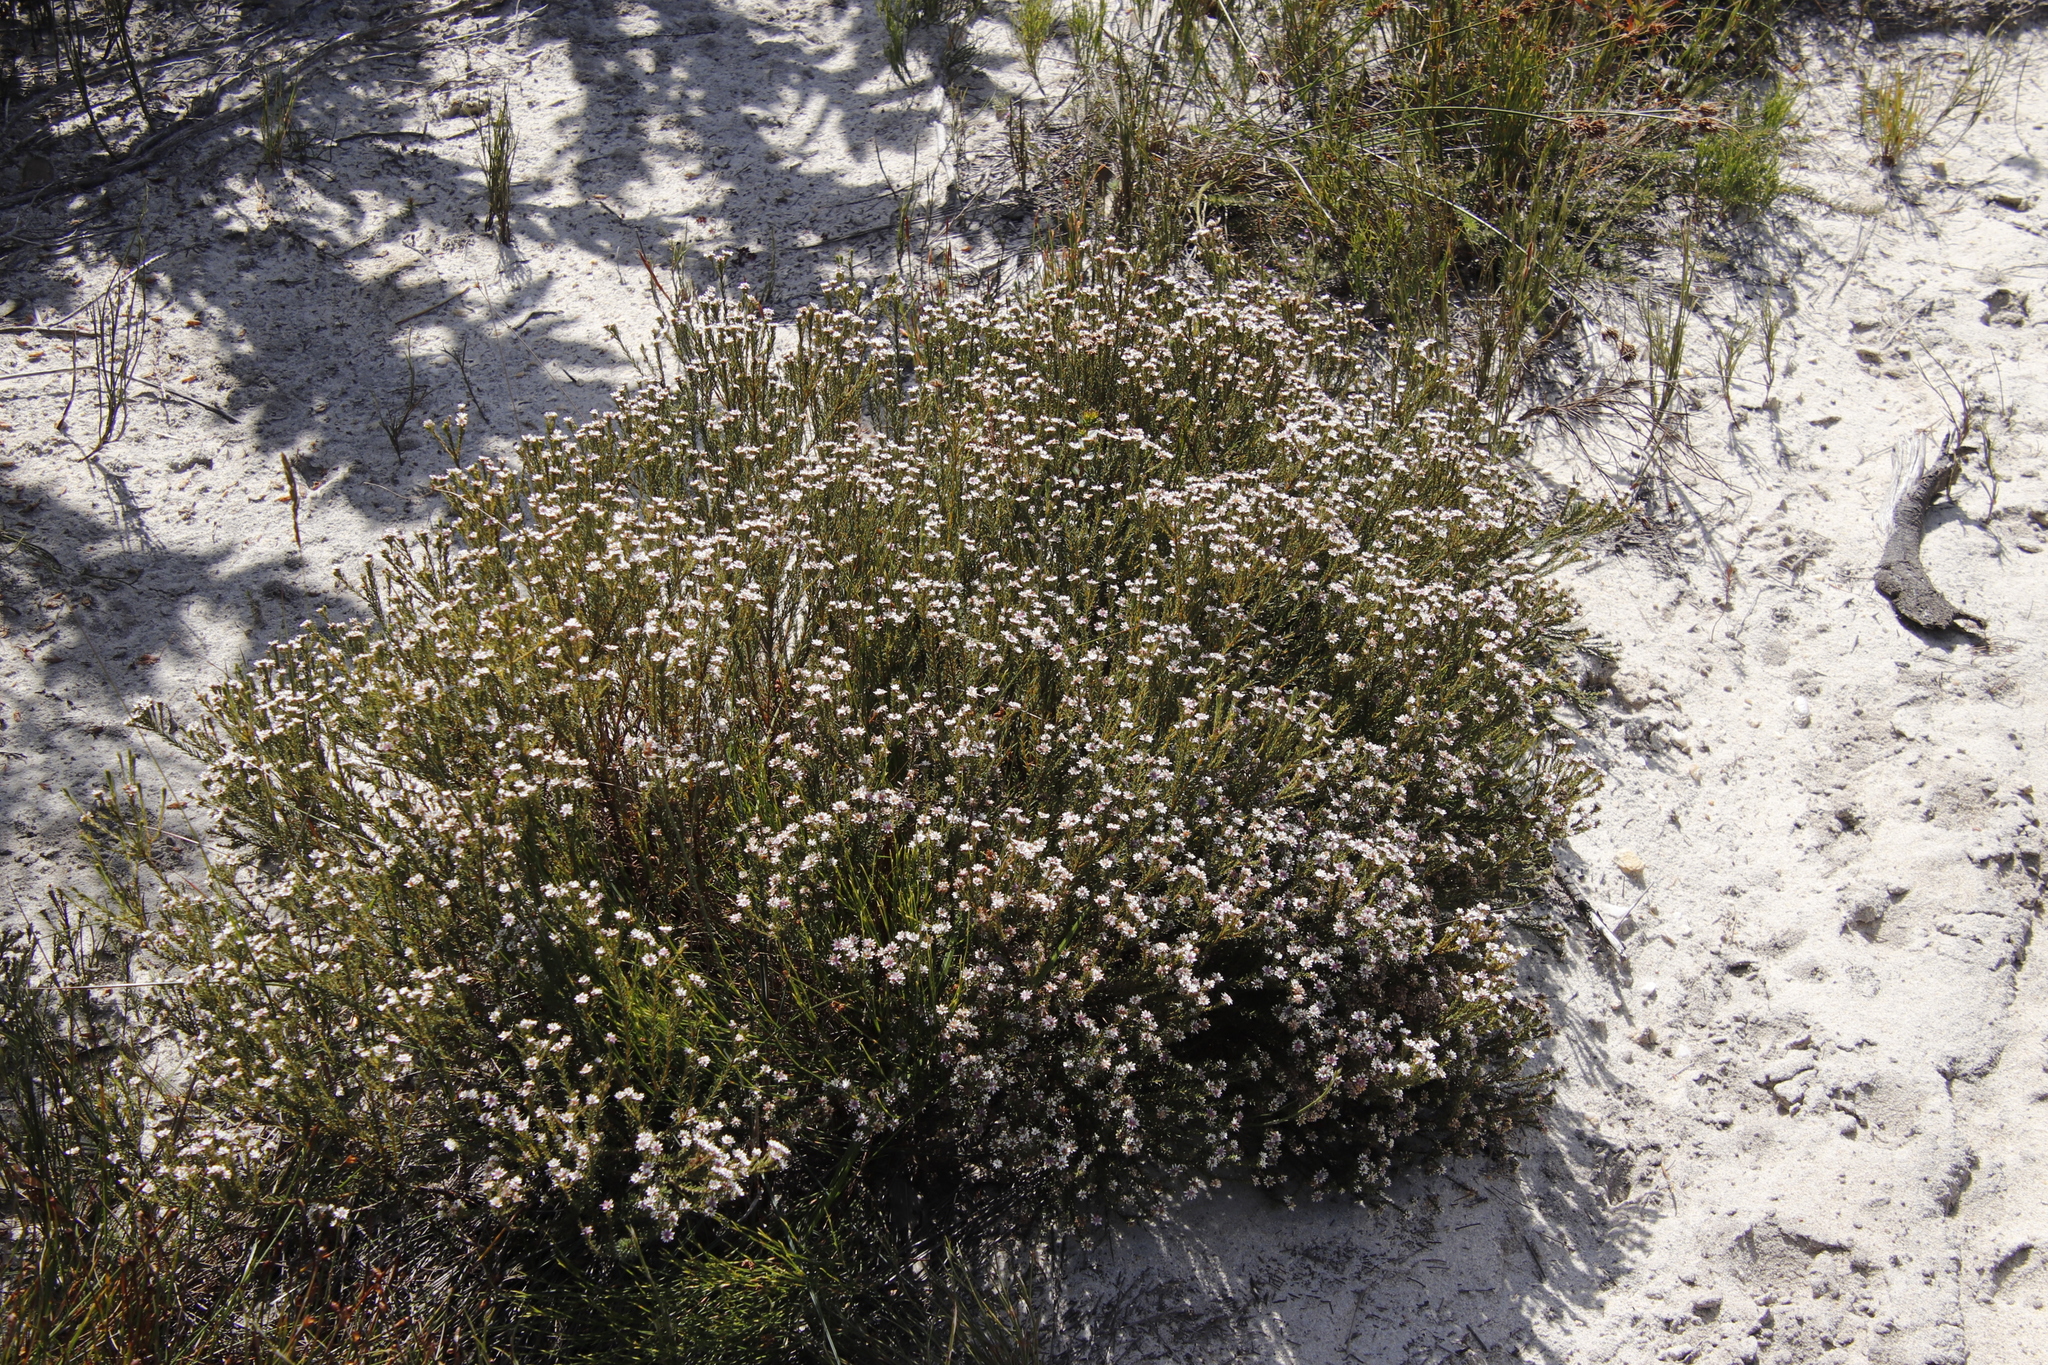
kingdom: Plantae
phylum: Tracheophyta
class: Magnoliopsida
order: Bruniales
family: Bruniaceae
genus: Staavia
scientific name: Staavia radiata
